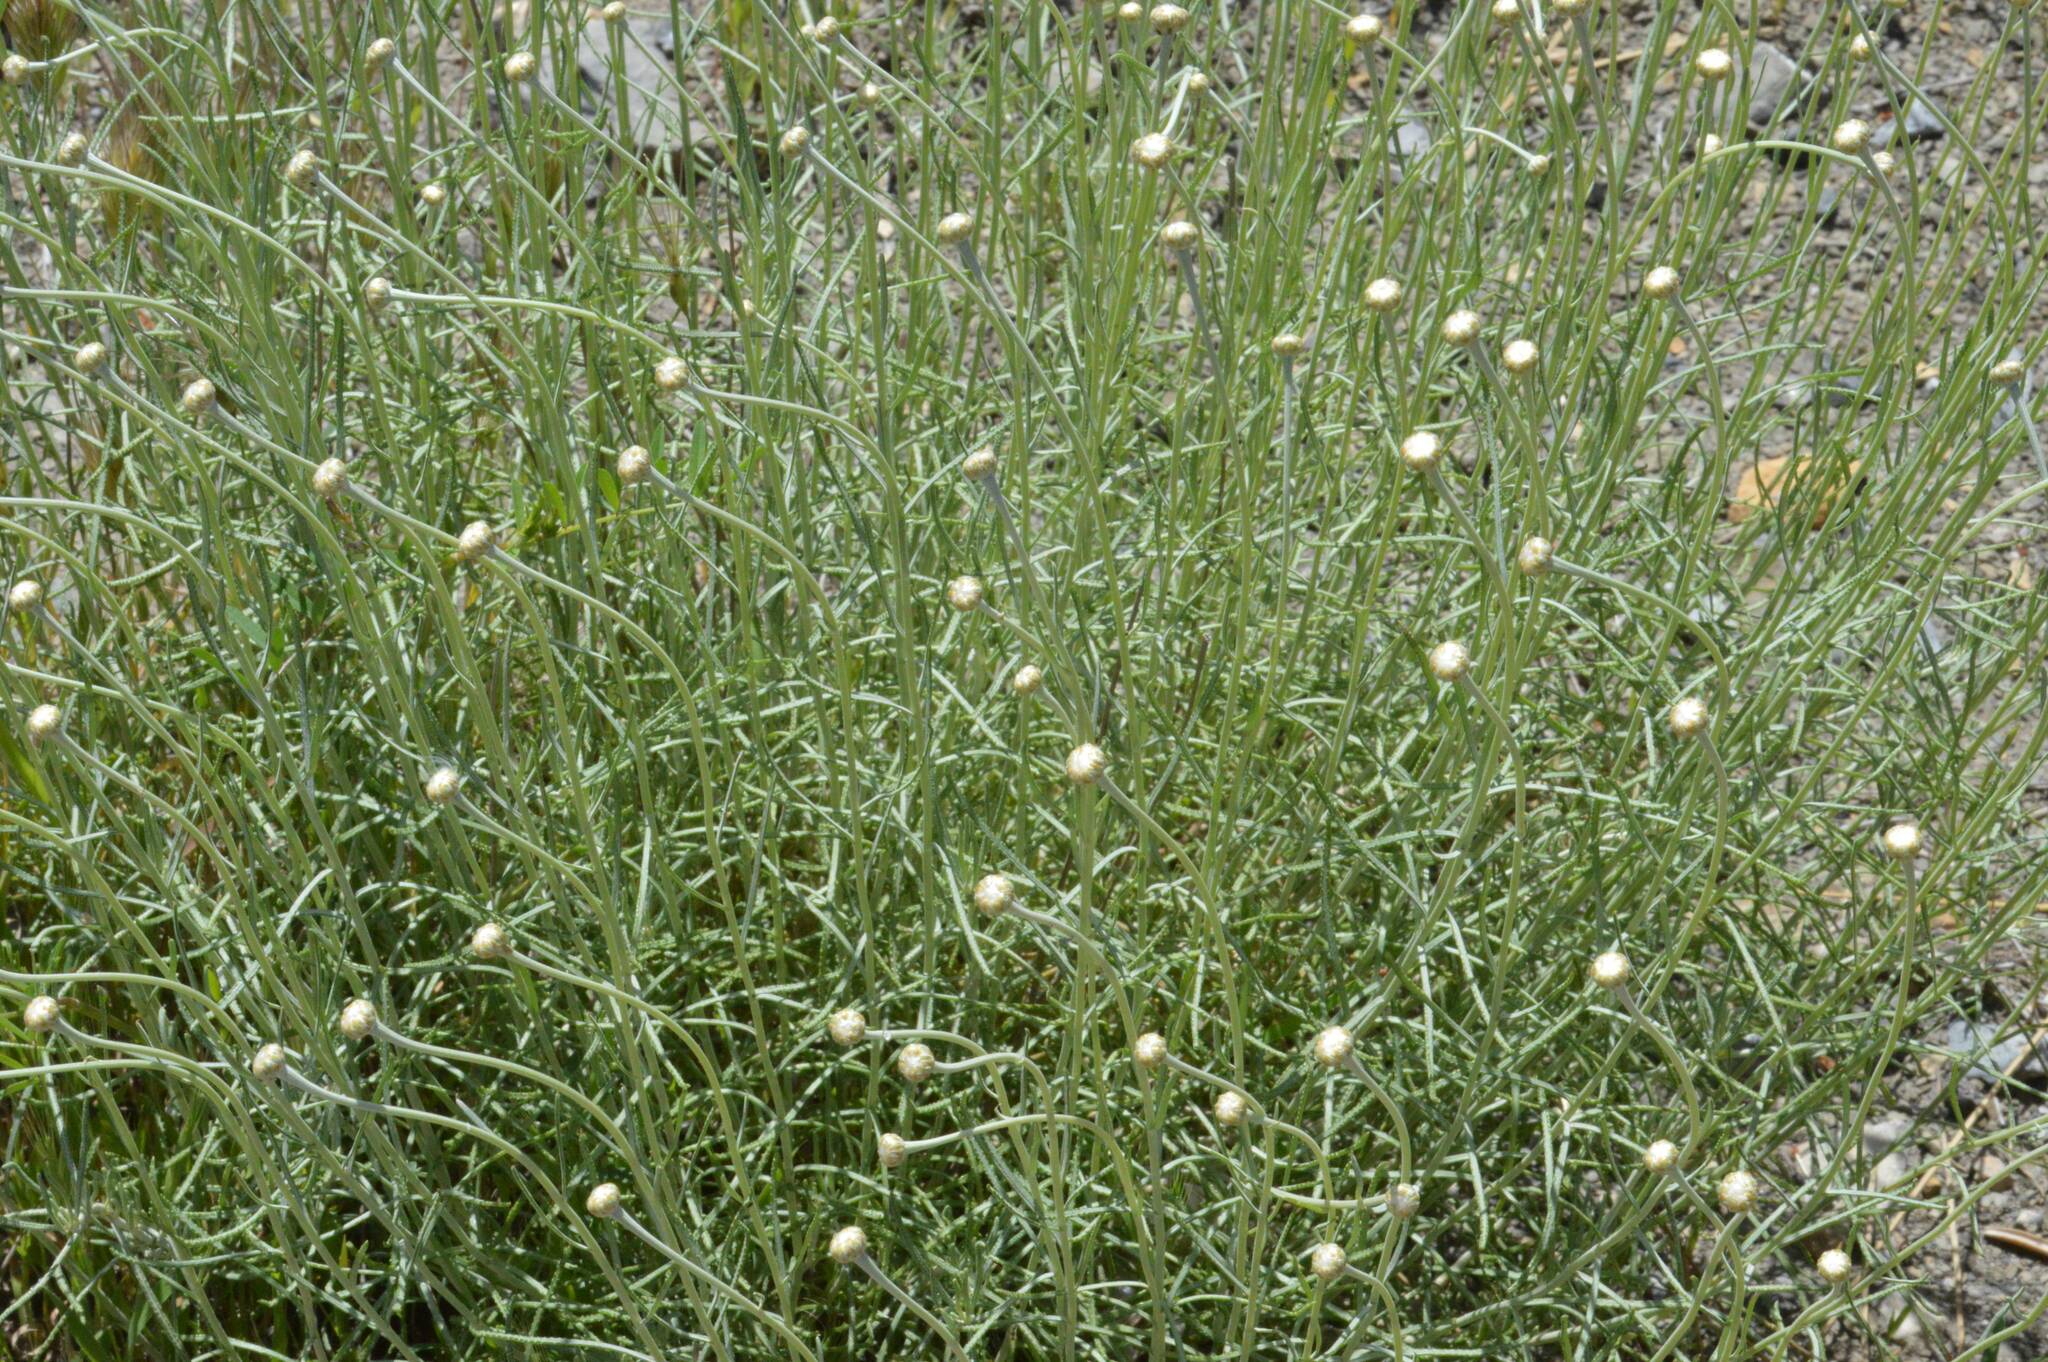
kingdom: Plantae
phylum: Tracheophyta
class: Magnoliopsida
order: Asterales
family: Asteraceae
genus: Santolina
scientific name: Santolina pectinata
